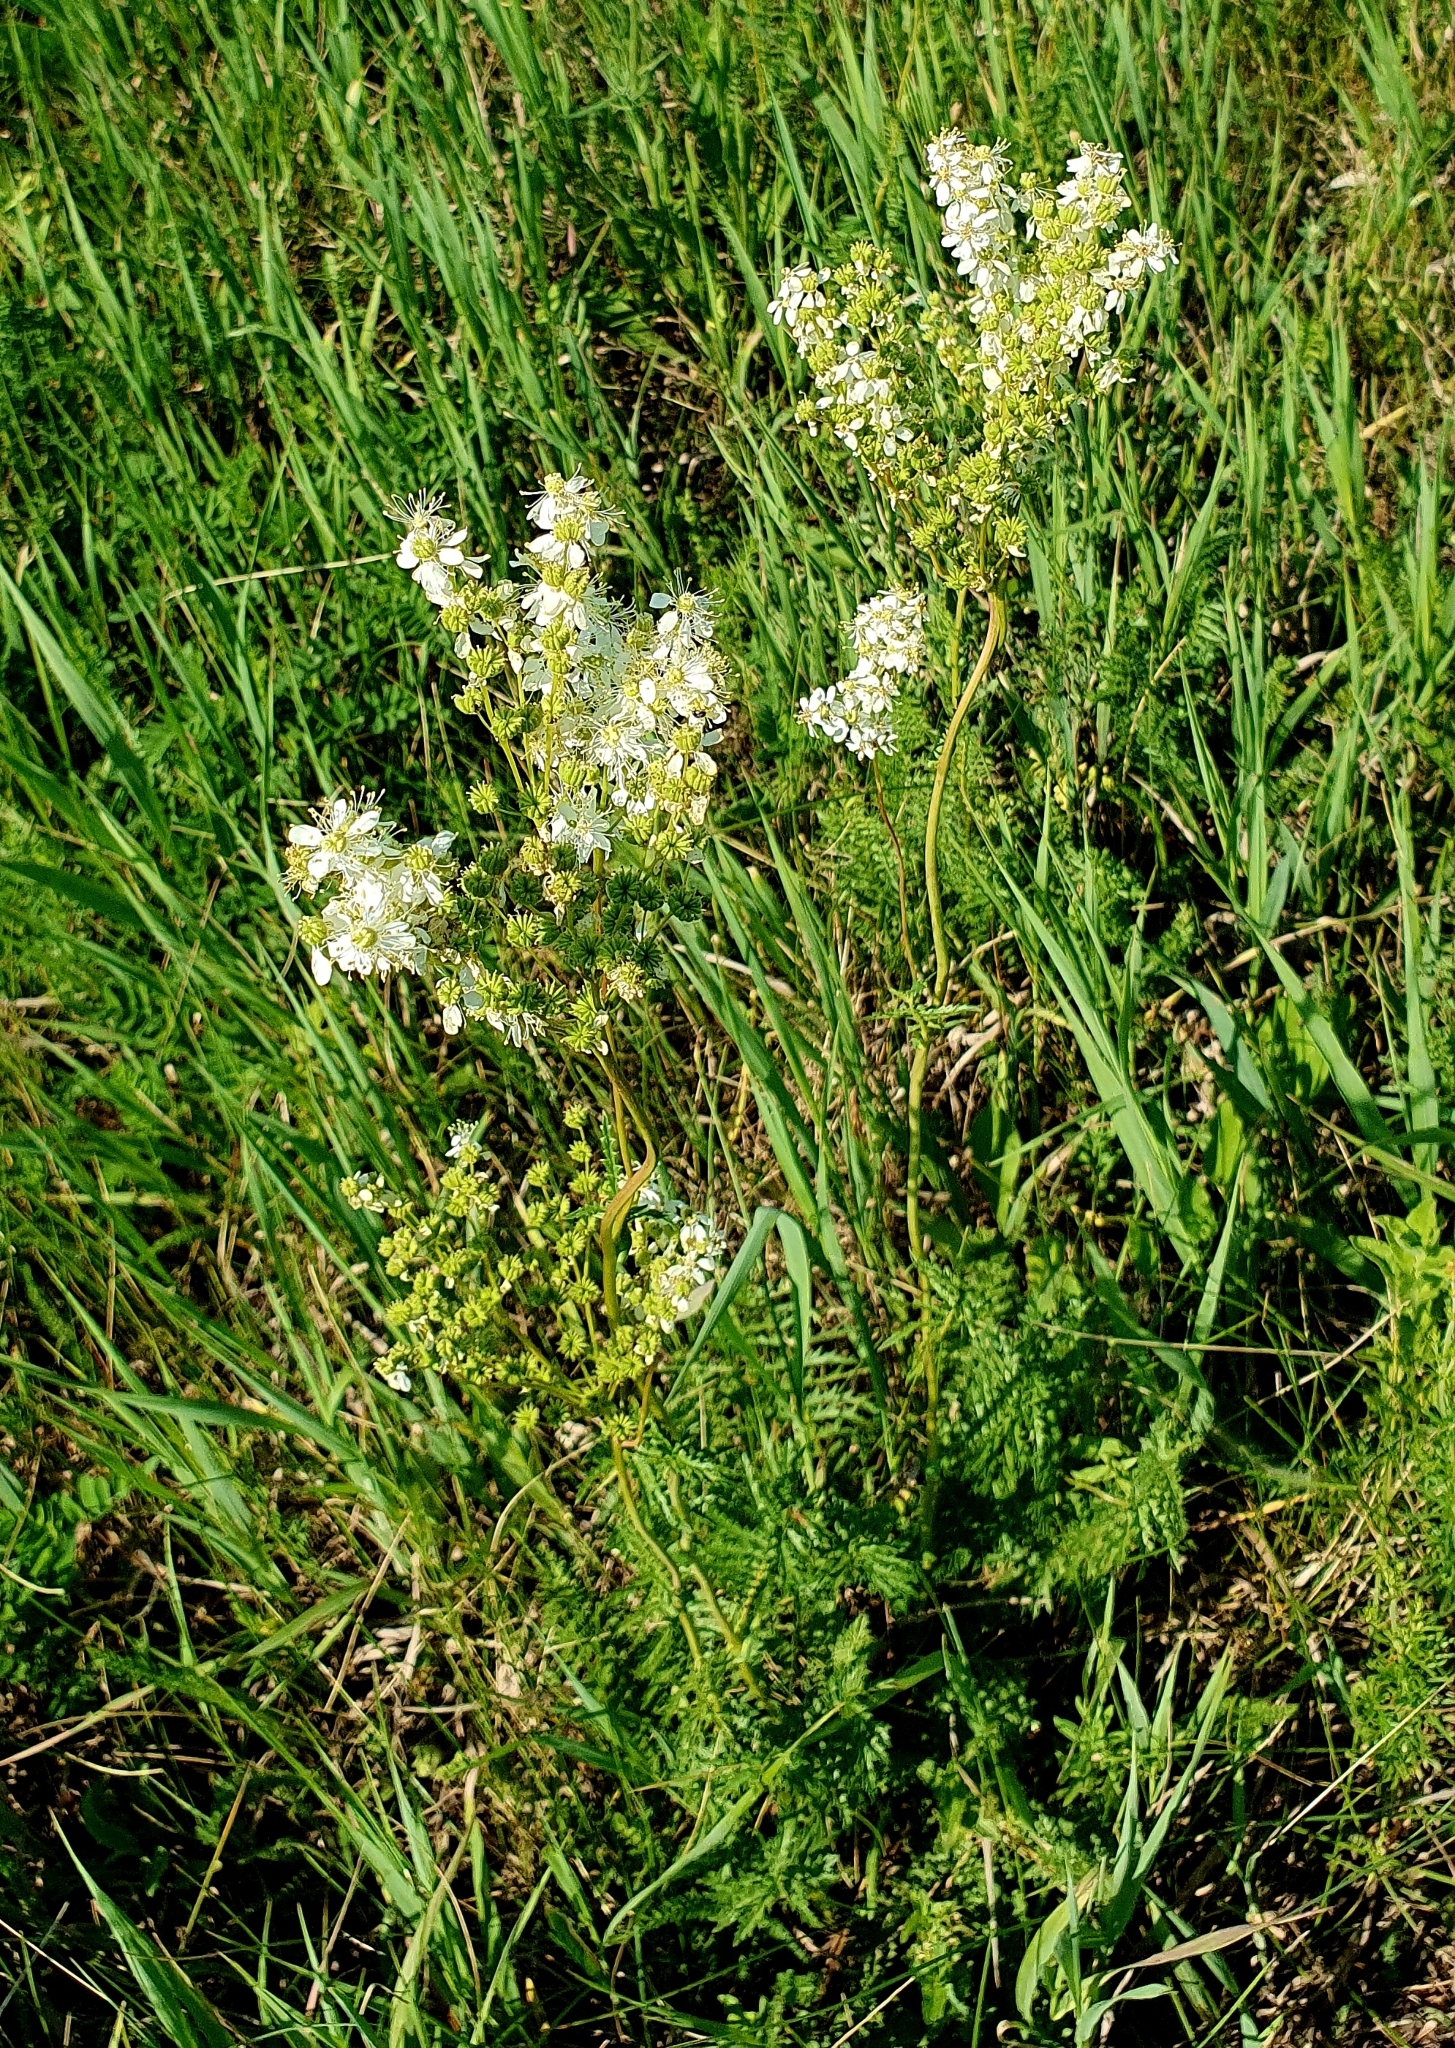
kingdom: Plantae
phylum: Tracheophyta
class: Magnoliopsida
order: Rosales
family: Rosaceae
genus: Filipendula
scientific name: Filipendula vulgaris
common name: Dropwort
